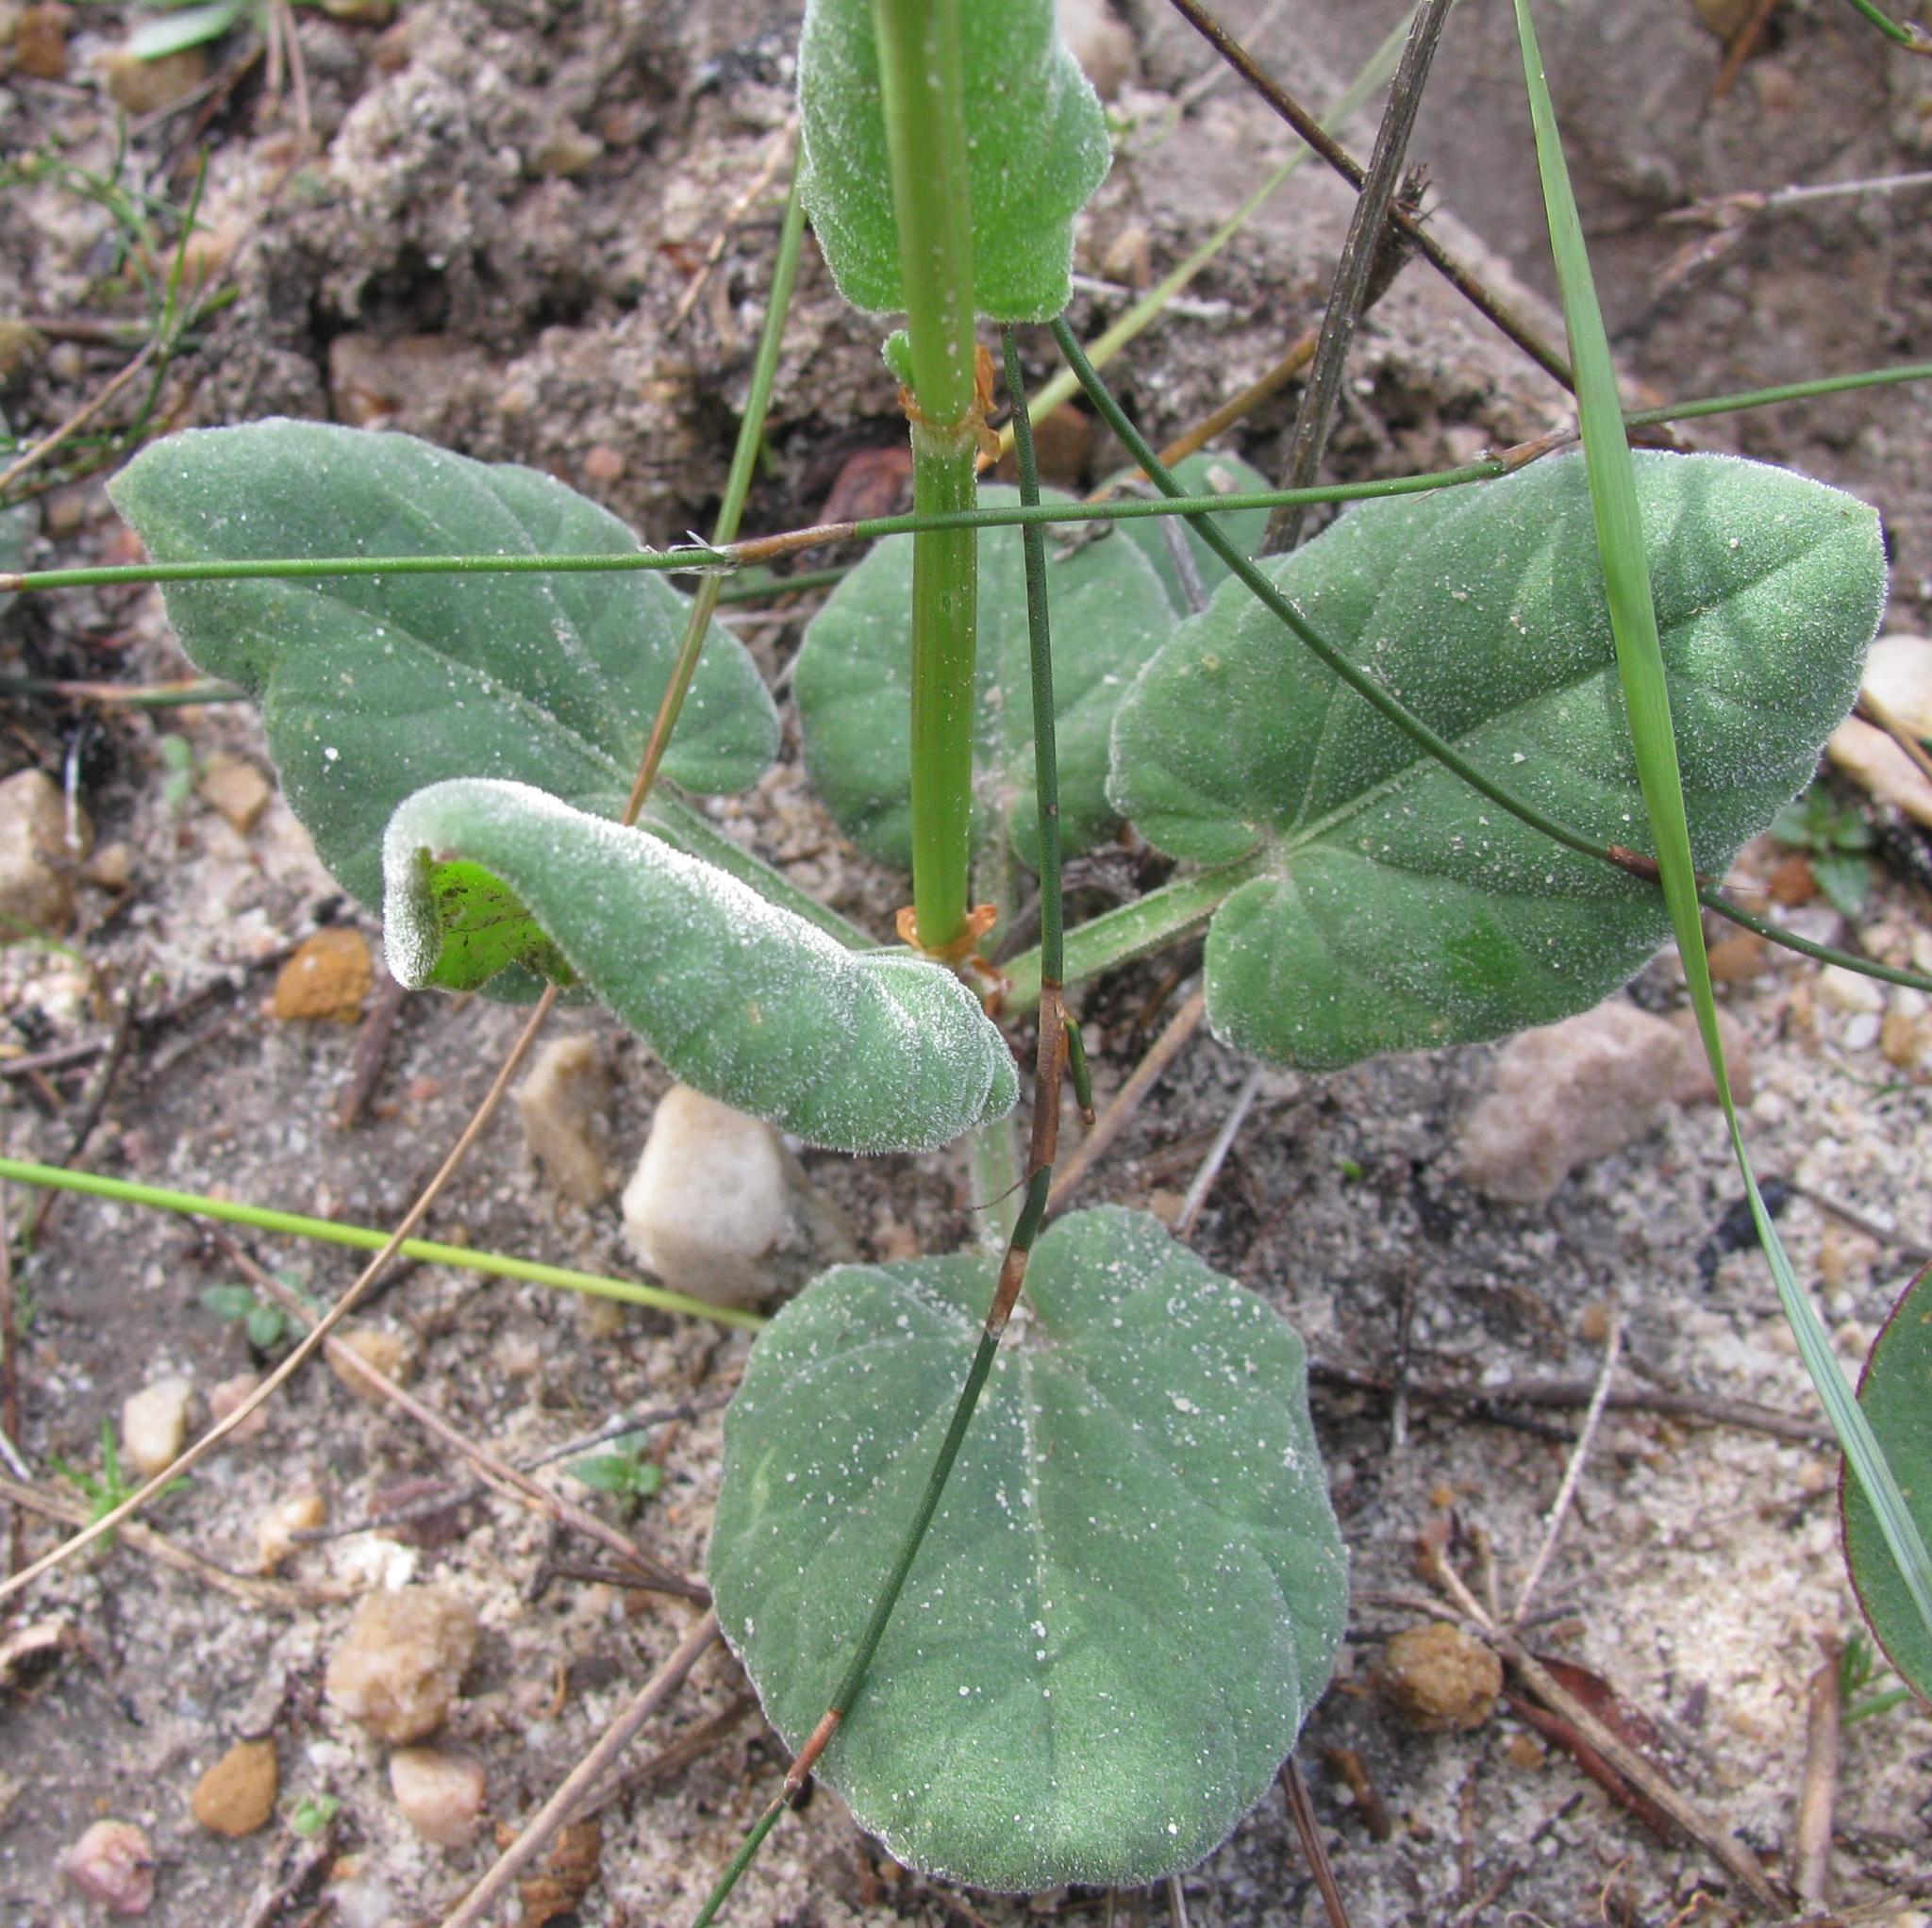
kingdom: Plantae
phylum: Tracheophyta
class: Magnoliopsida
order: Caryophyllales
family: Polygonaceae
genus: Rumex
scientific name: Rumex cordatus
